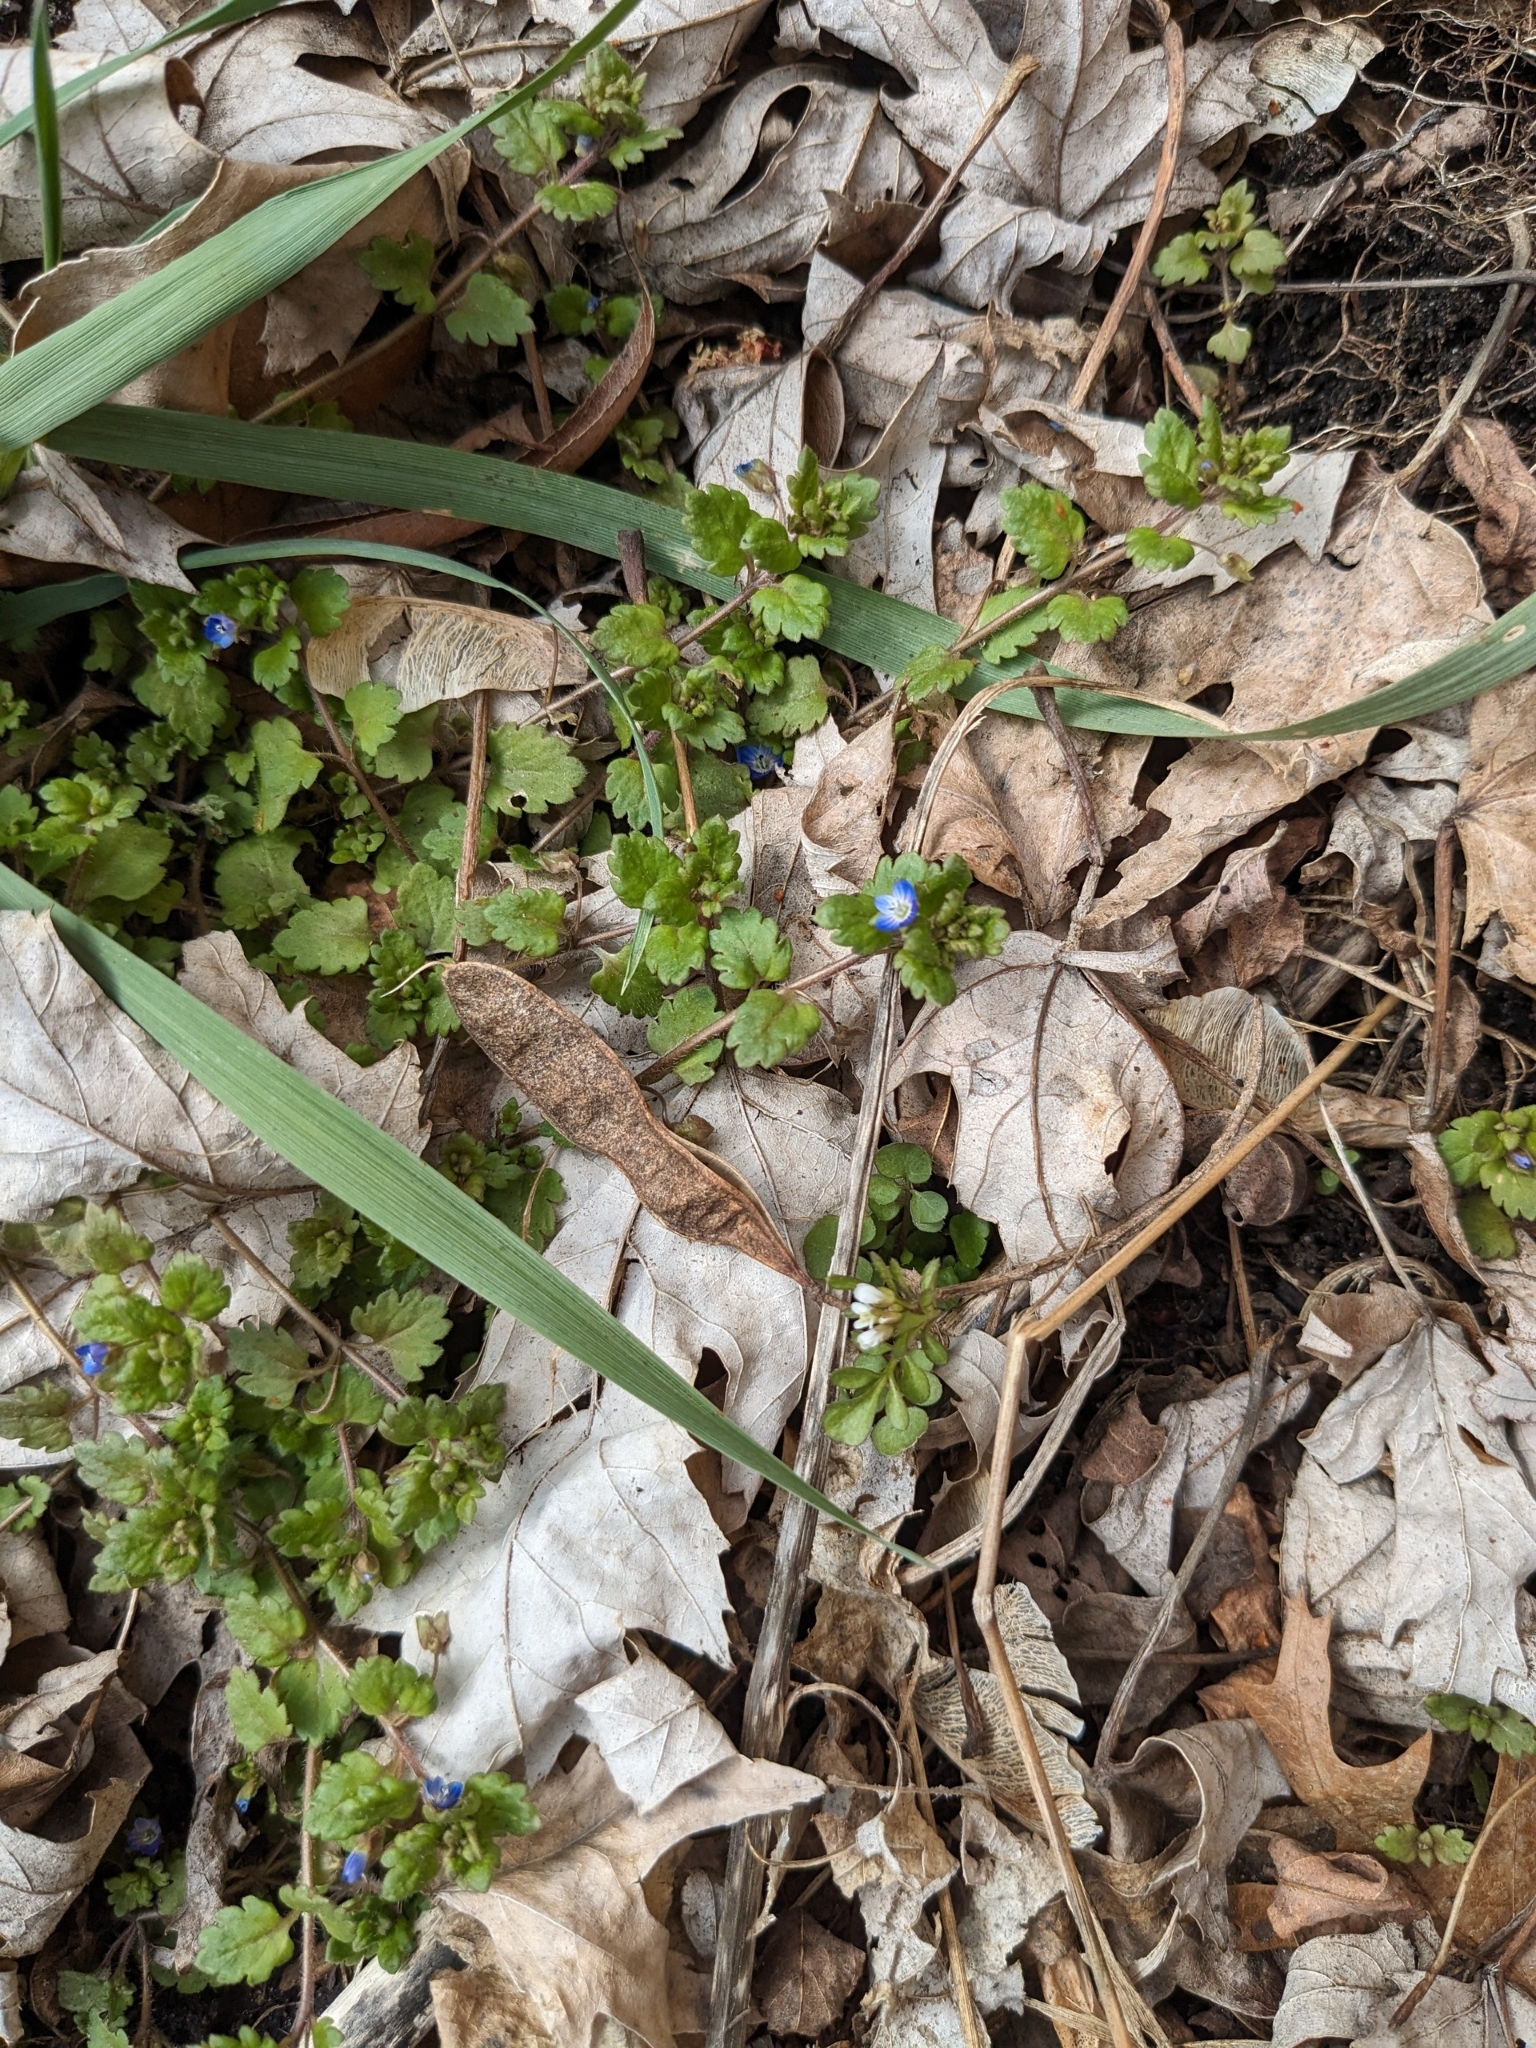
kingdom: Plantae
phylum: Tracheophyta
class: Magnoliopsida
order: Lamiales
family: Plantaginaceae
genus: Veronica
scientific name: Veronica polita
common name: Grey field-speedwell
